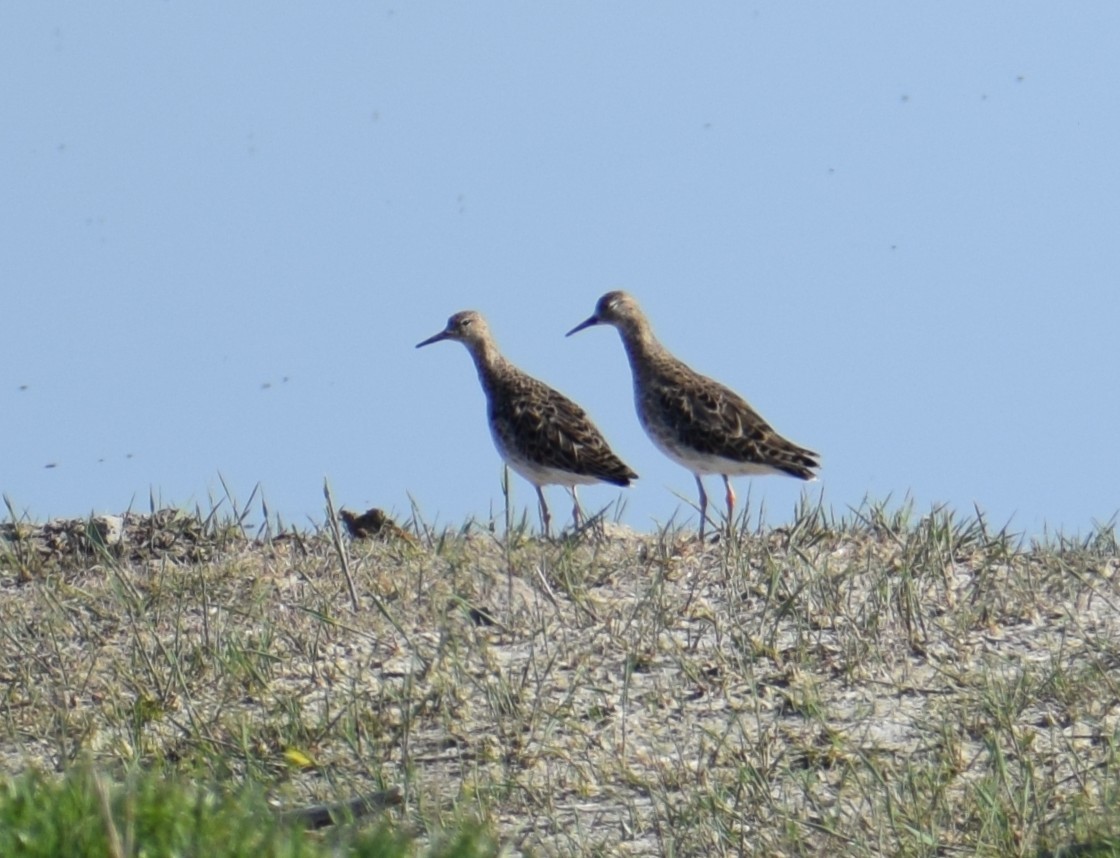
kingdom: Animalia
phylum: Chordata
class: Aves
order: Charadriiformes
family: Scolopacidae
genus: Calidris
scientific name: Calidris pugnax
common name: Ruff
